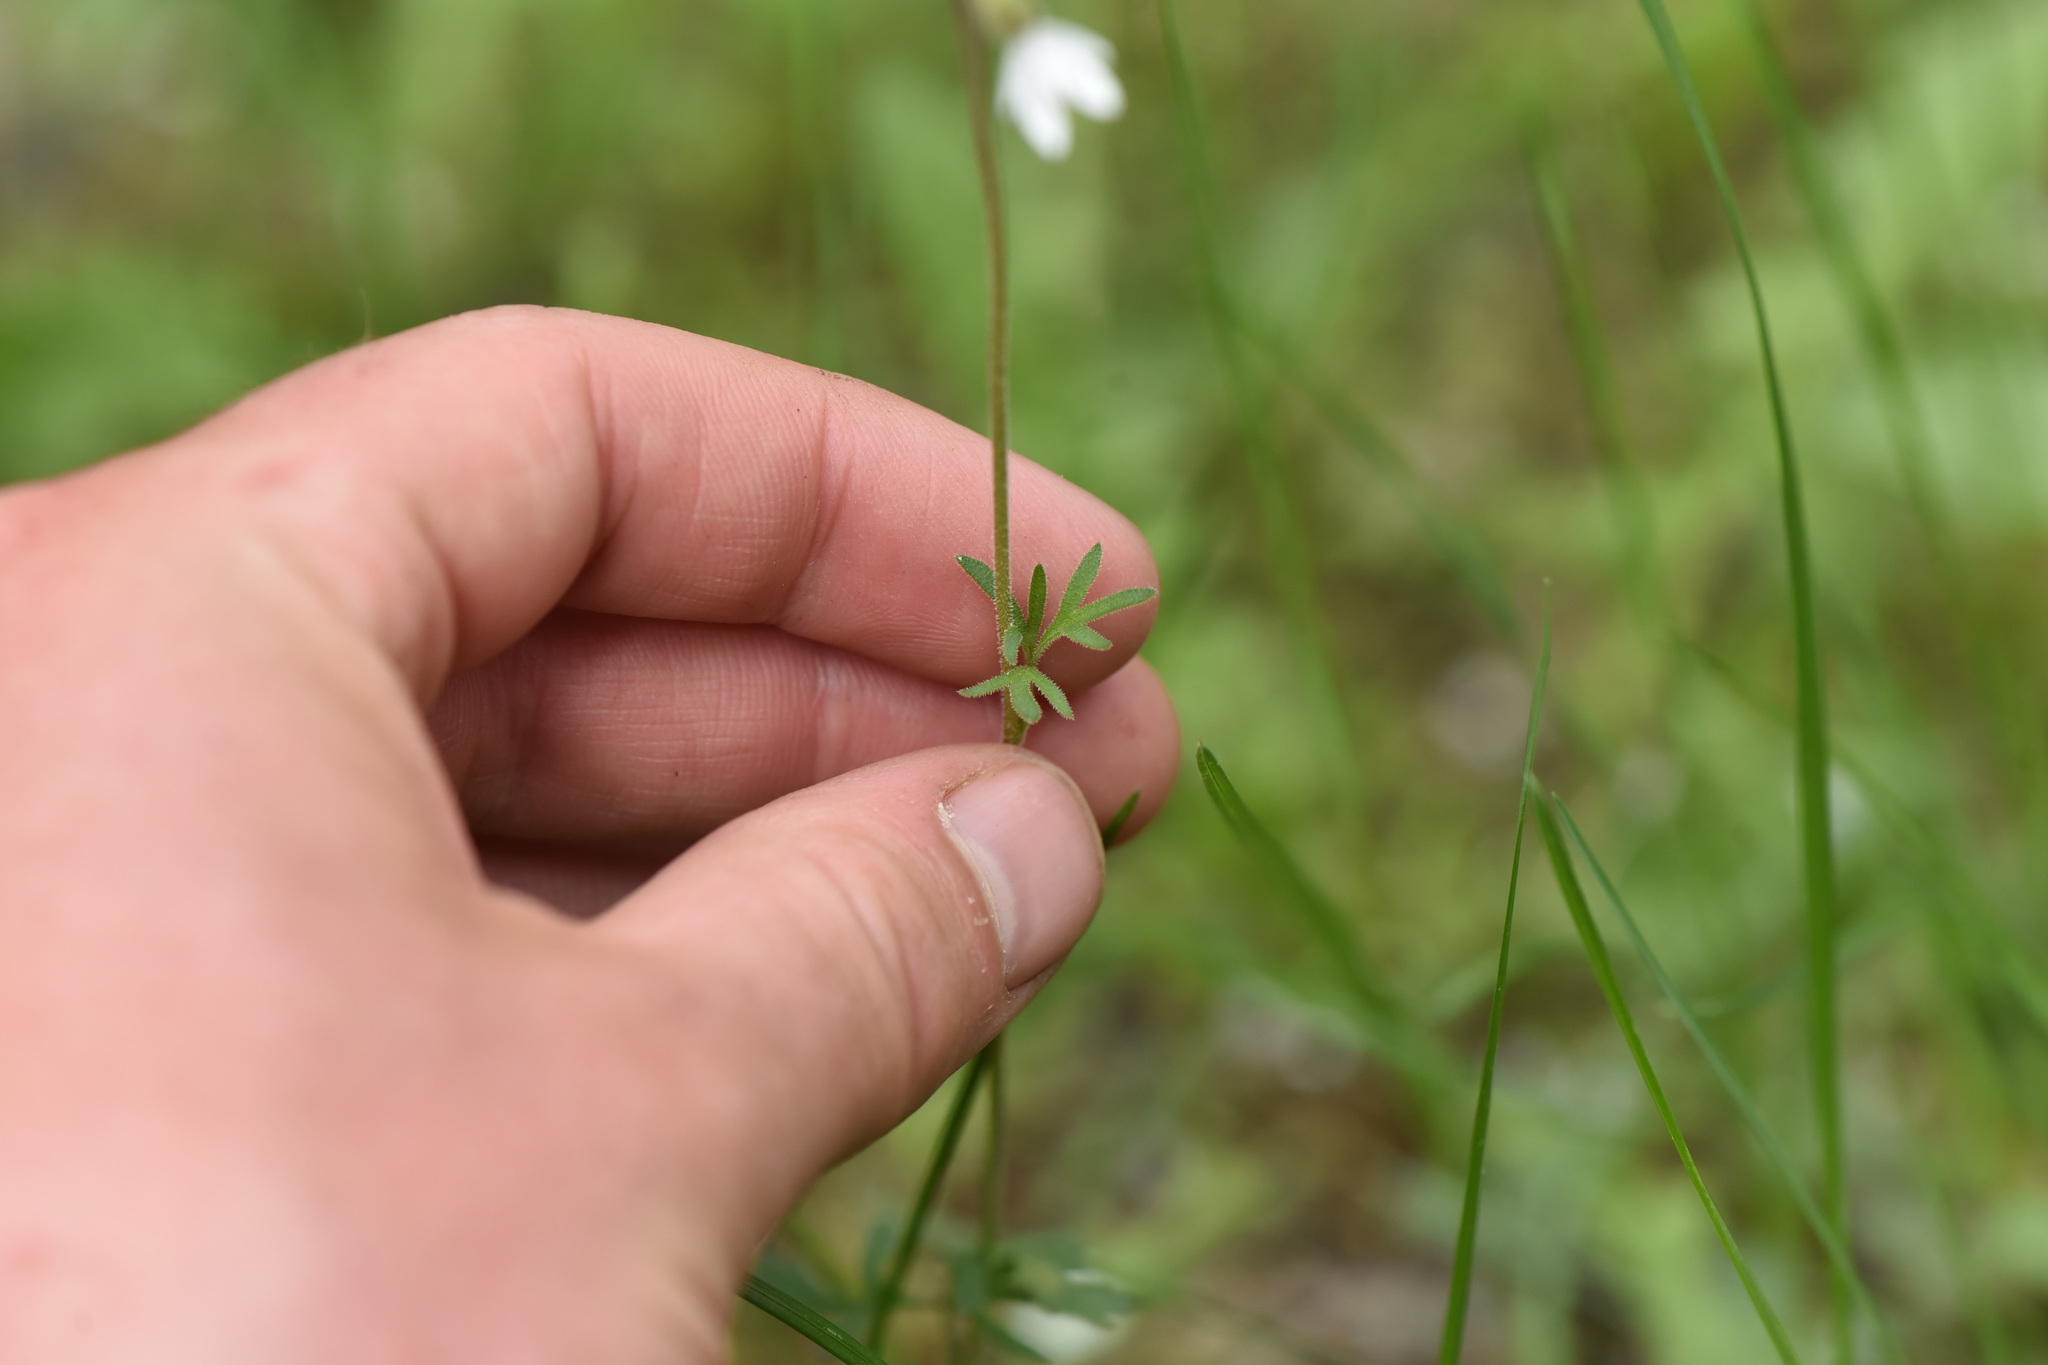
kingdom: Plantae
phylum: Tracheophyta
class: Magnoliopsida
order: Saxifragales
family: Saxifragaceae
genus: Lithophragma
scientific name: Lithophragma parviflorum
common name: Small-flowered fringe-cup
